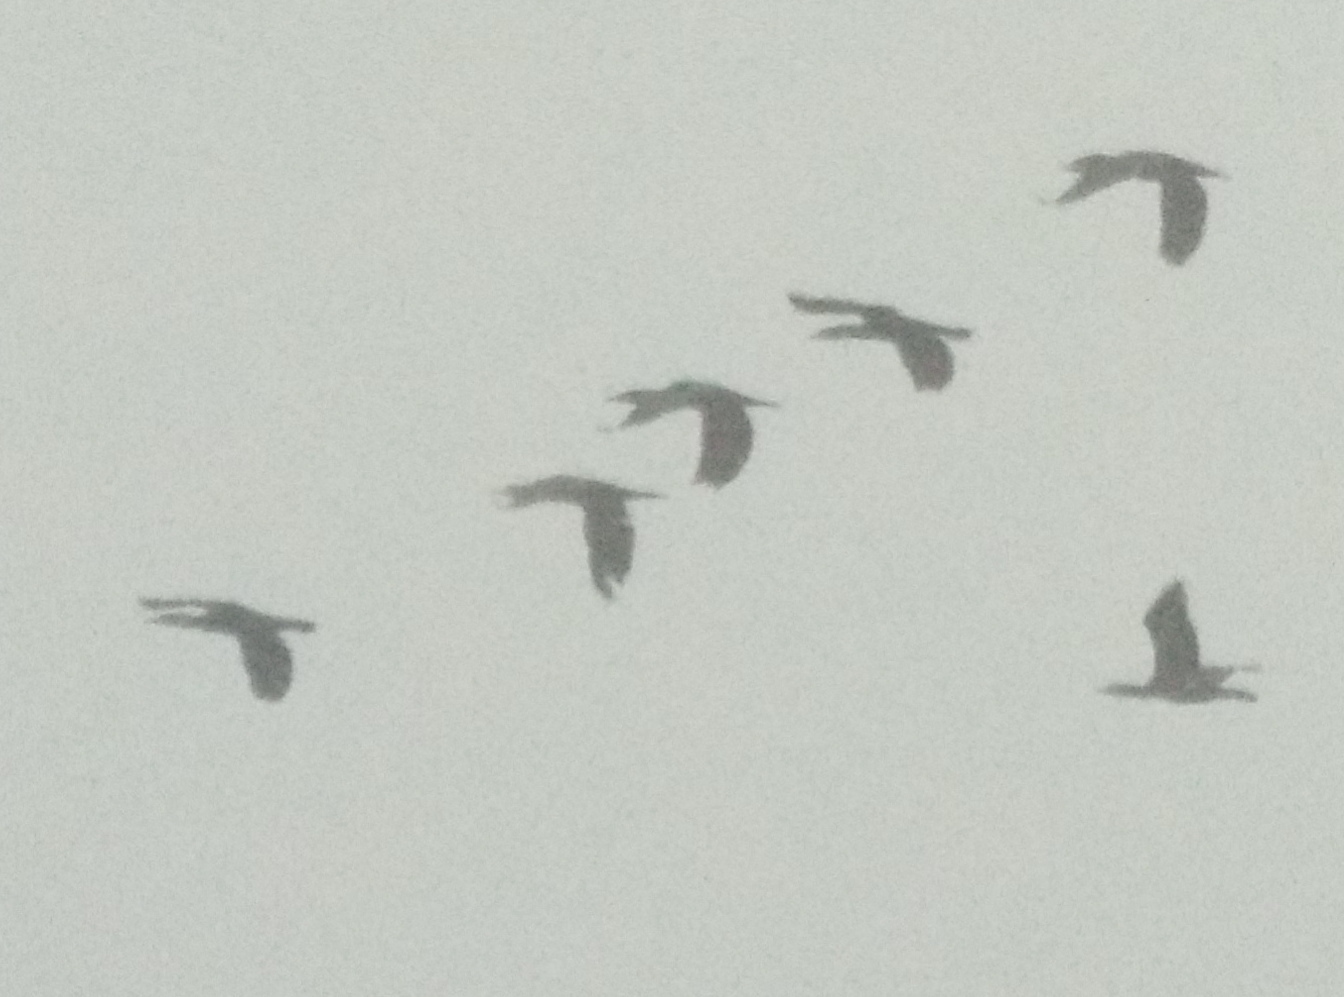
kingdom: Animalia
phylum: Chordata
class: Aves
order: Suliformes
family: Phalacrocoracidae
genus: Phalacrocorax
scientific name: Phalacrocorax carbo
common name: Great cormorant
